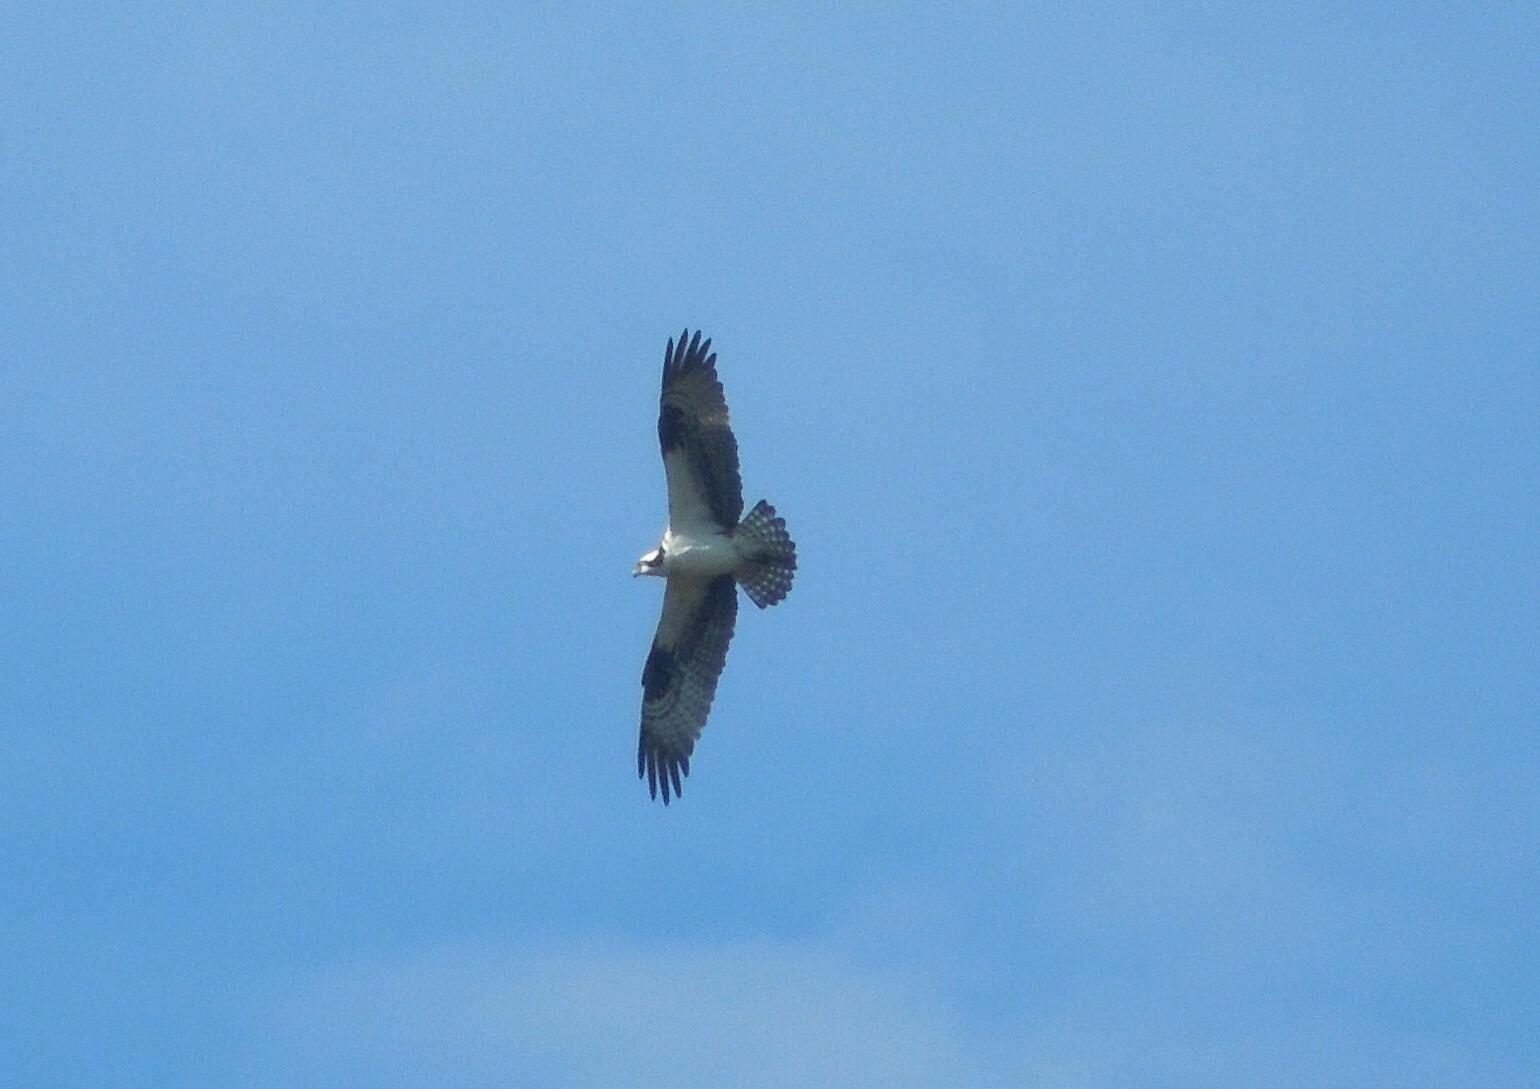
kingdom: Animalia
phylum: Chordata
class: Aves
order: Accipitriformes
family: Pandionidae
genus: Pandion
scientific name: Pandion haliaetus
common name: Osprey
